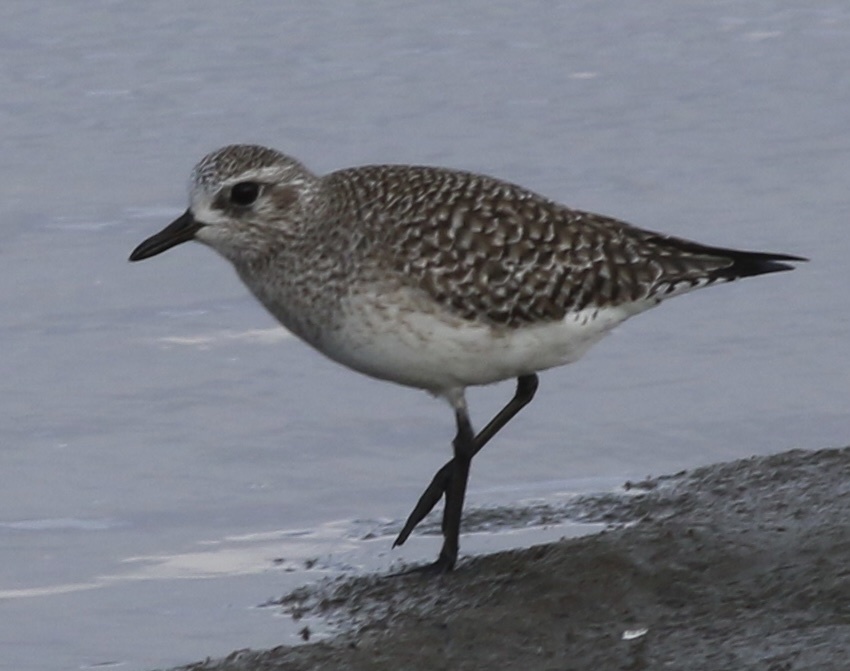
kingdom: Animalia
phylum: Chordata
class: Aves
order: Charadriiformes
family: Charadriidae
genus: Pluvialis
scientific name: Pluvialis squatarola
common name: Grey plover
